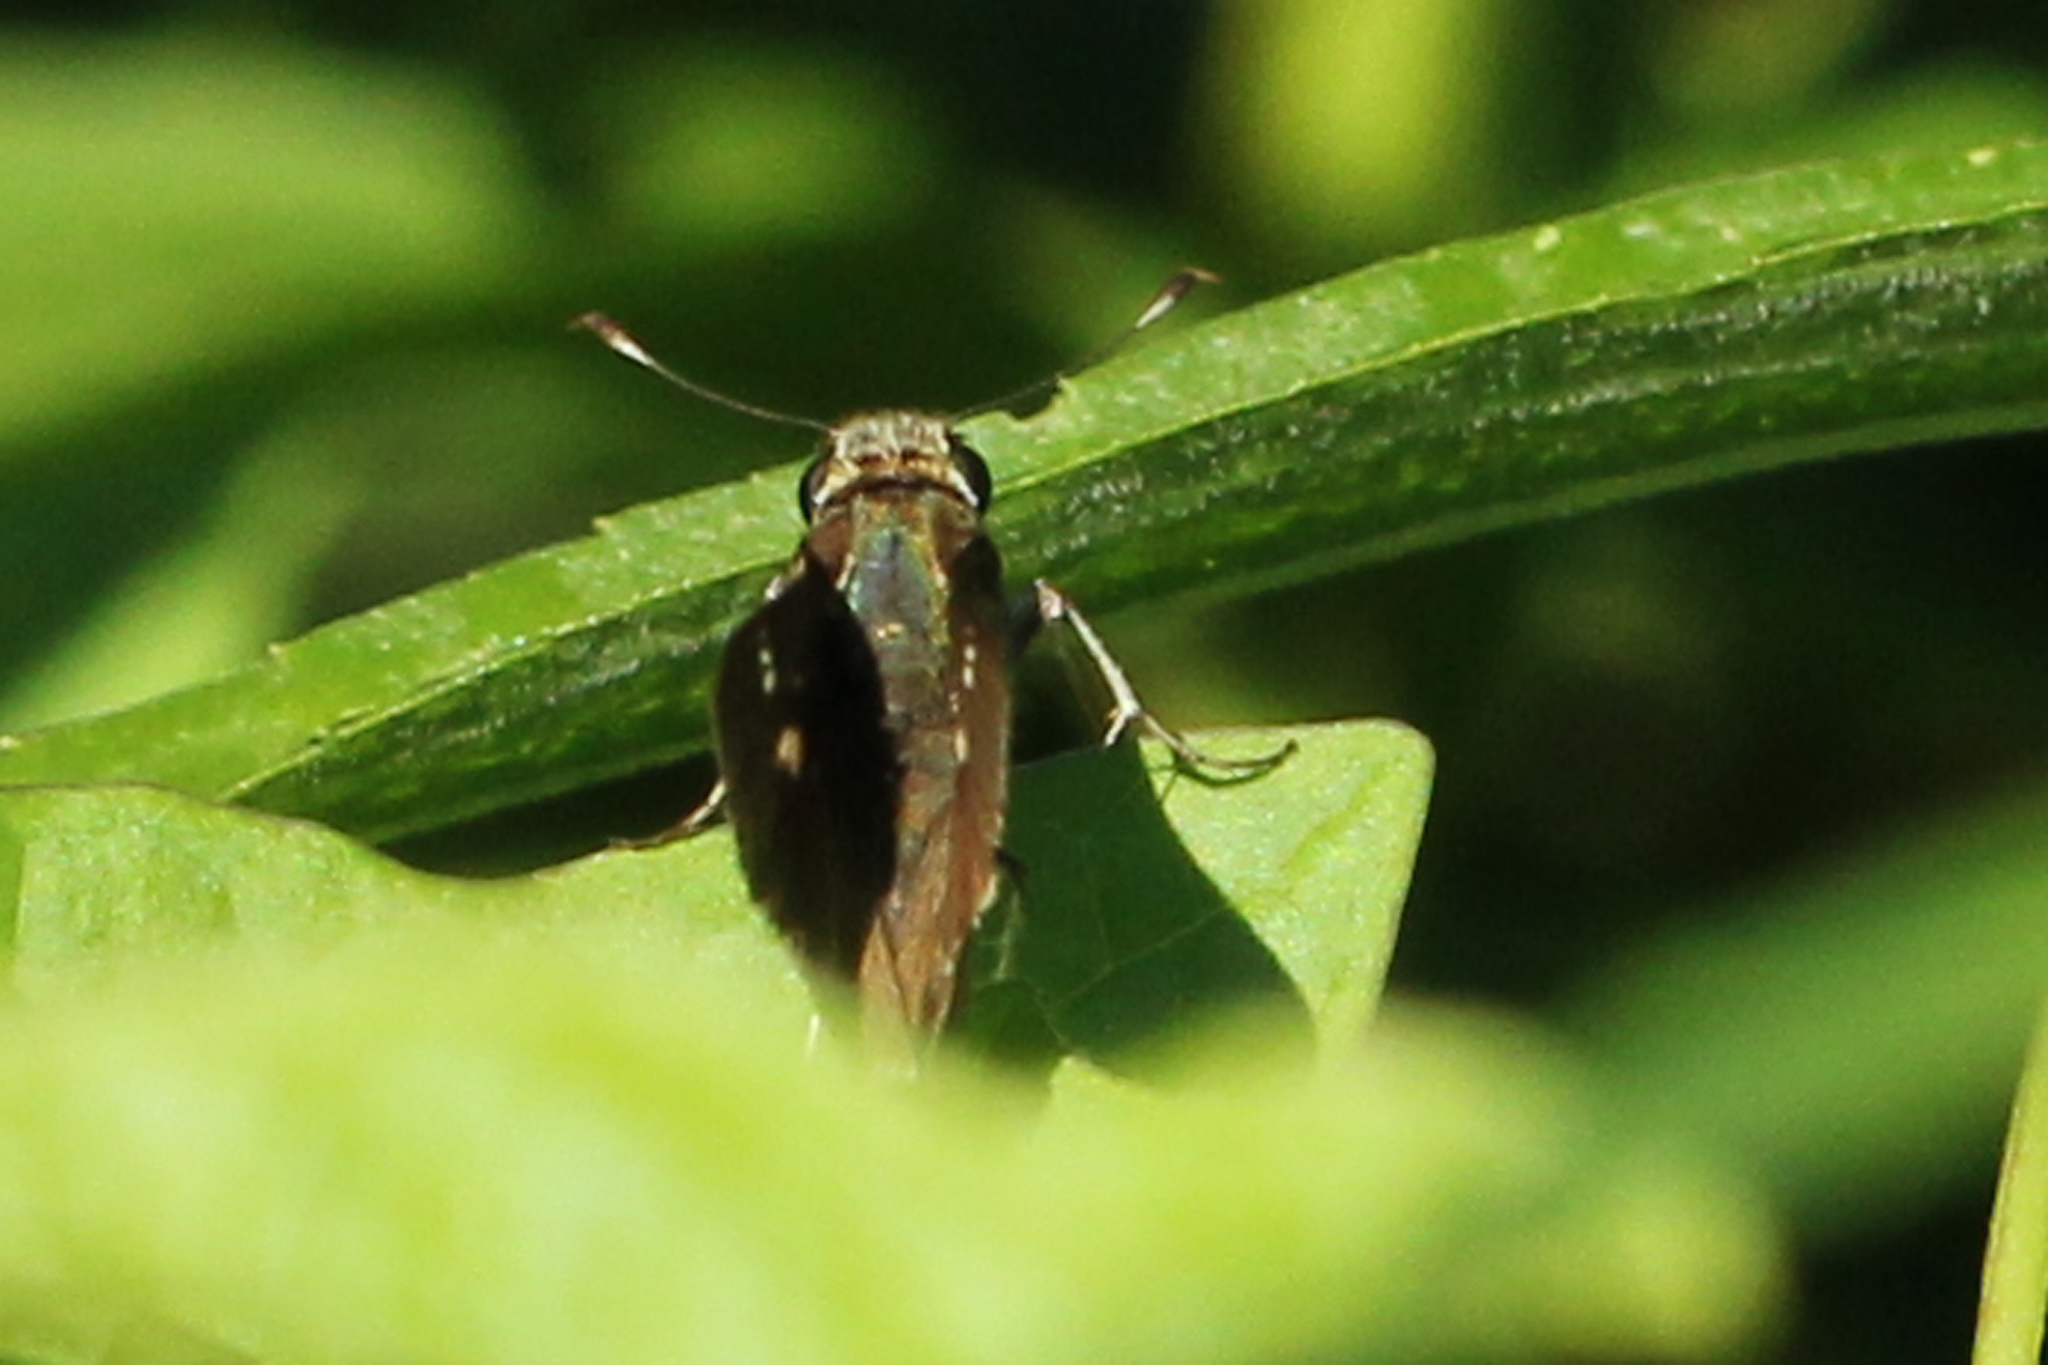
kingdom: Animalia
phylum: Arthropoda
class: Insecta
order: Lepidoptera
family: Hesperiidae
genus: Vernia
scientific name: Vernia verna
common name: Little glassywing
